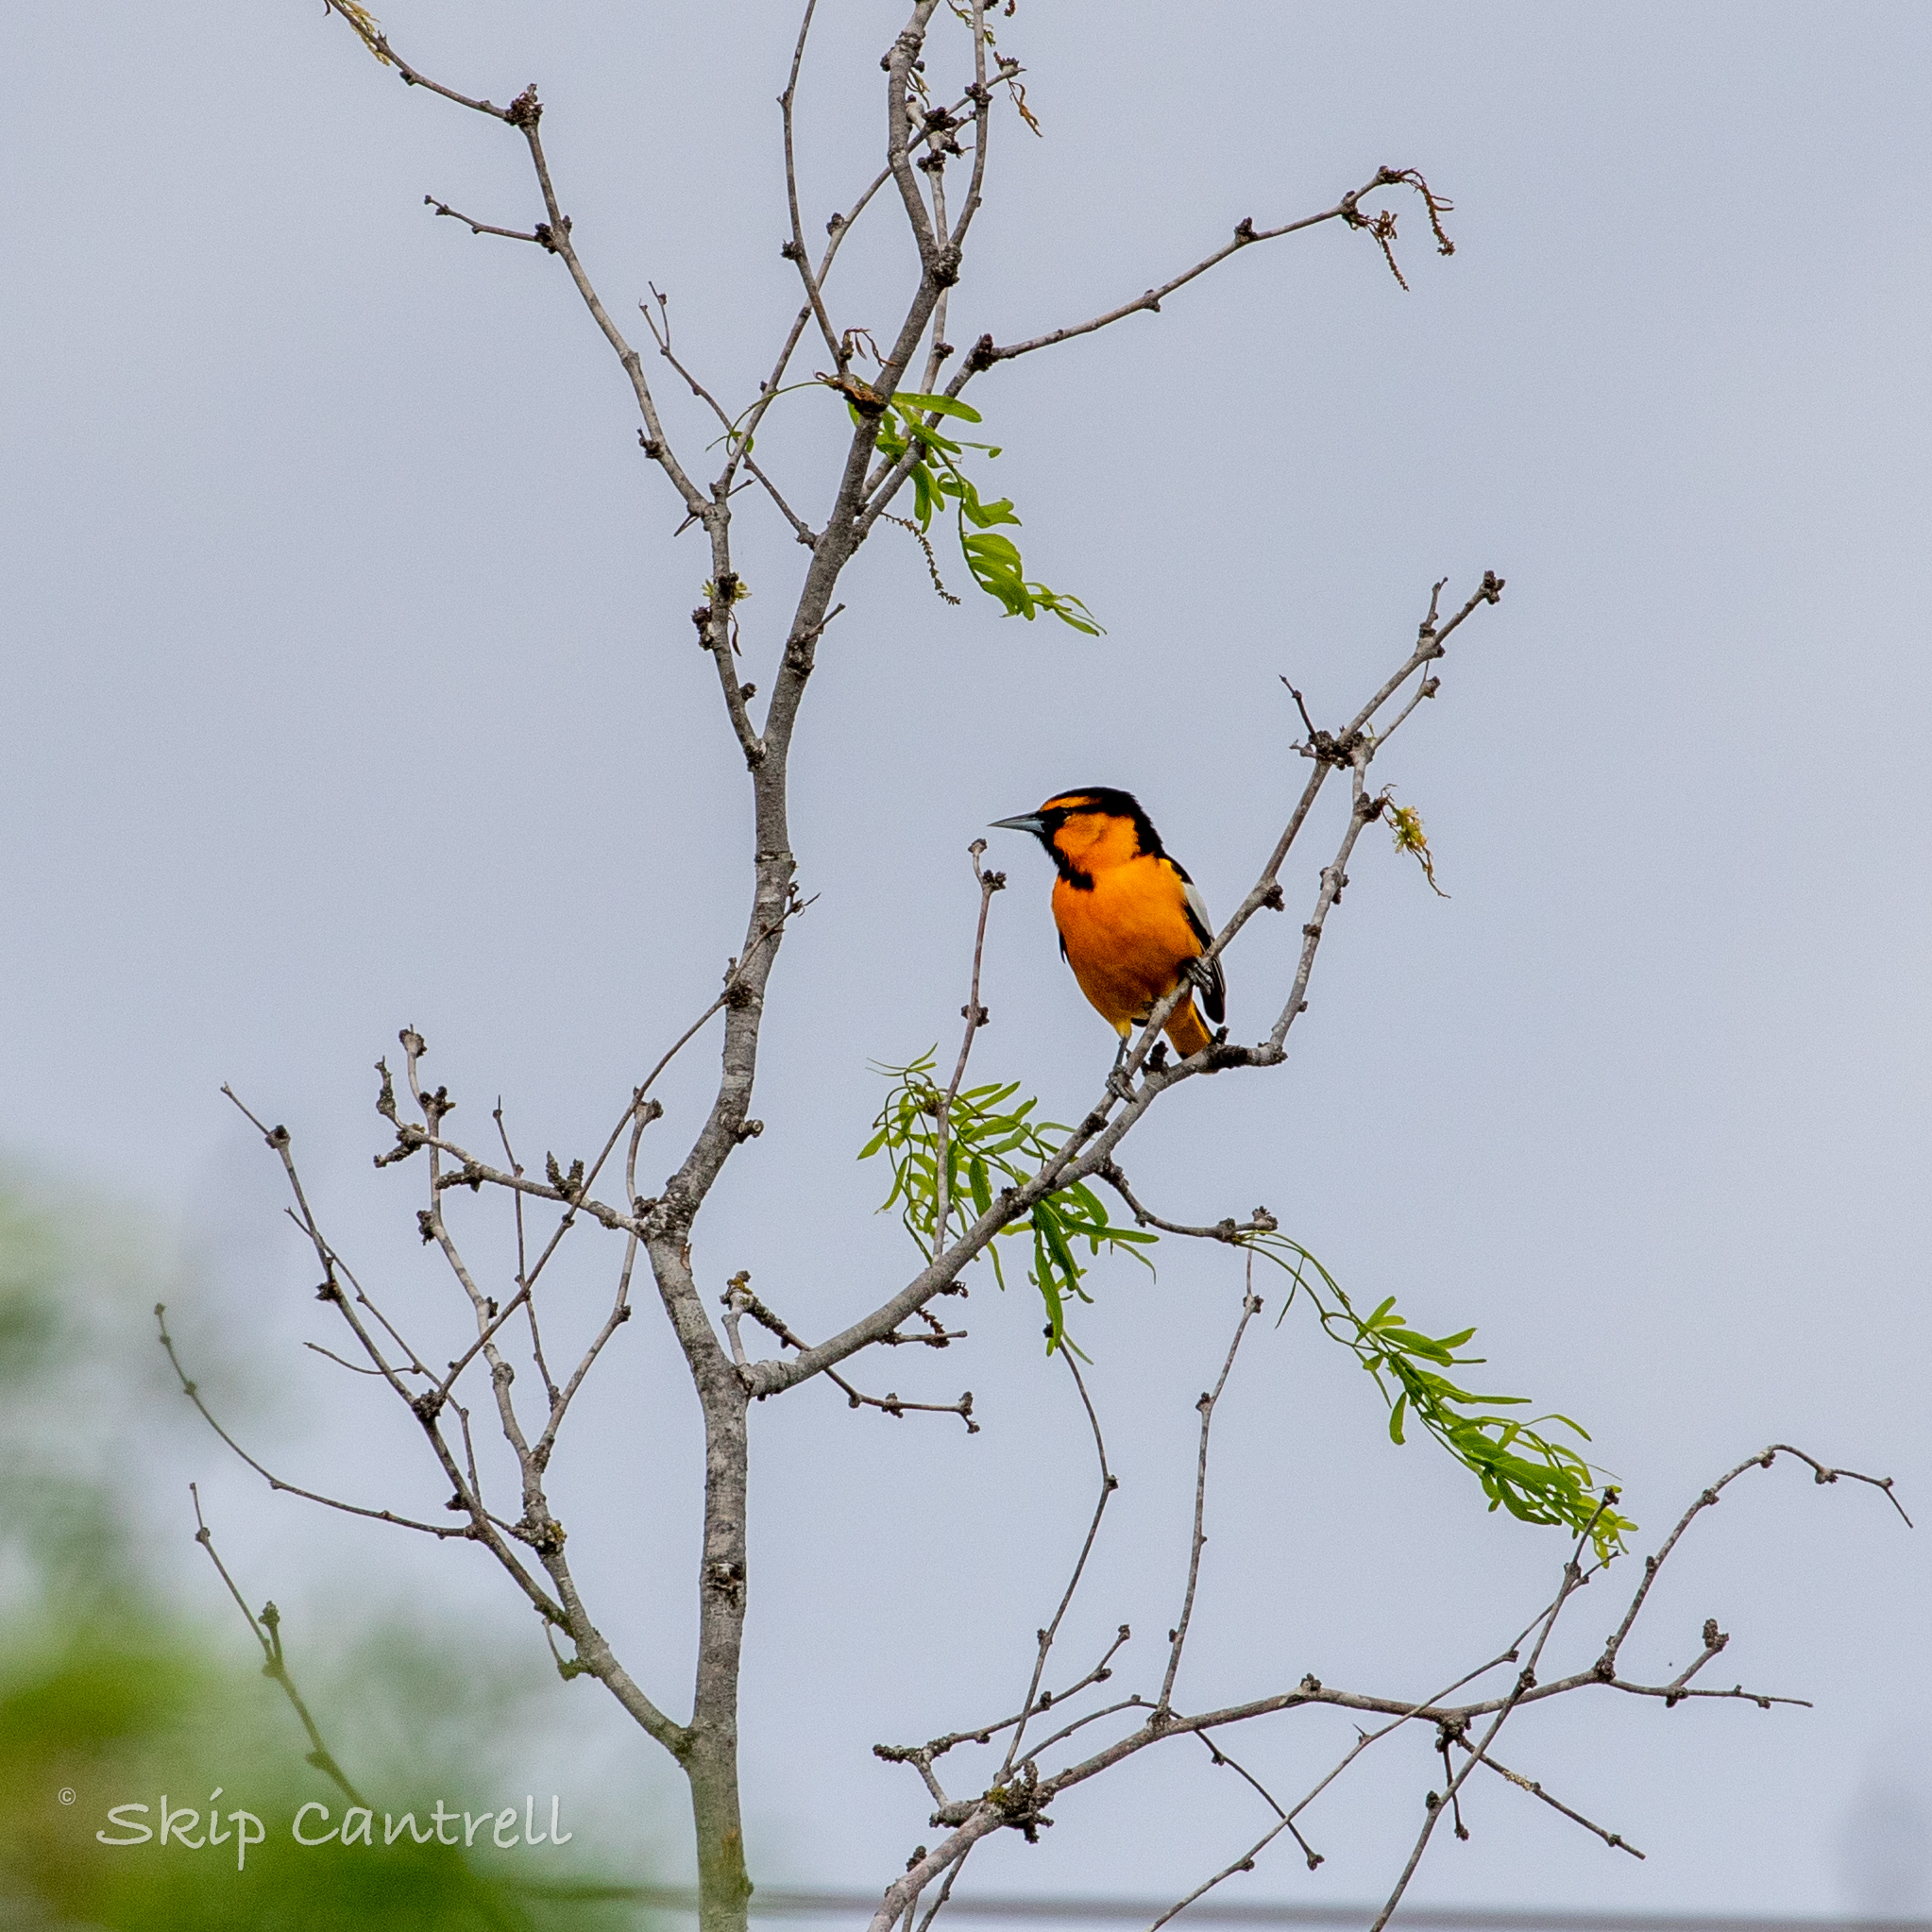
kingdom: Animalia
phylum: Chordata
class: Aves
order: Passeriformes
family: Icteridae
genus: Icterus
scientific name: Icterus bullockii
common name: Bullock's oriole
